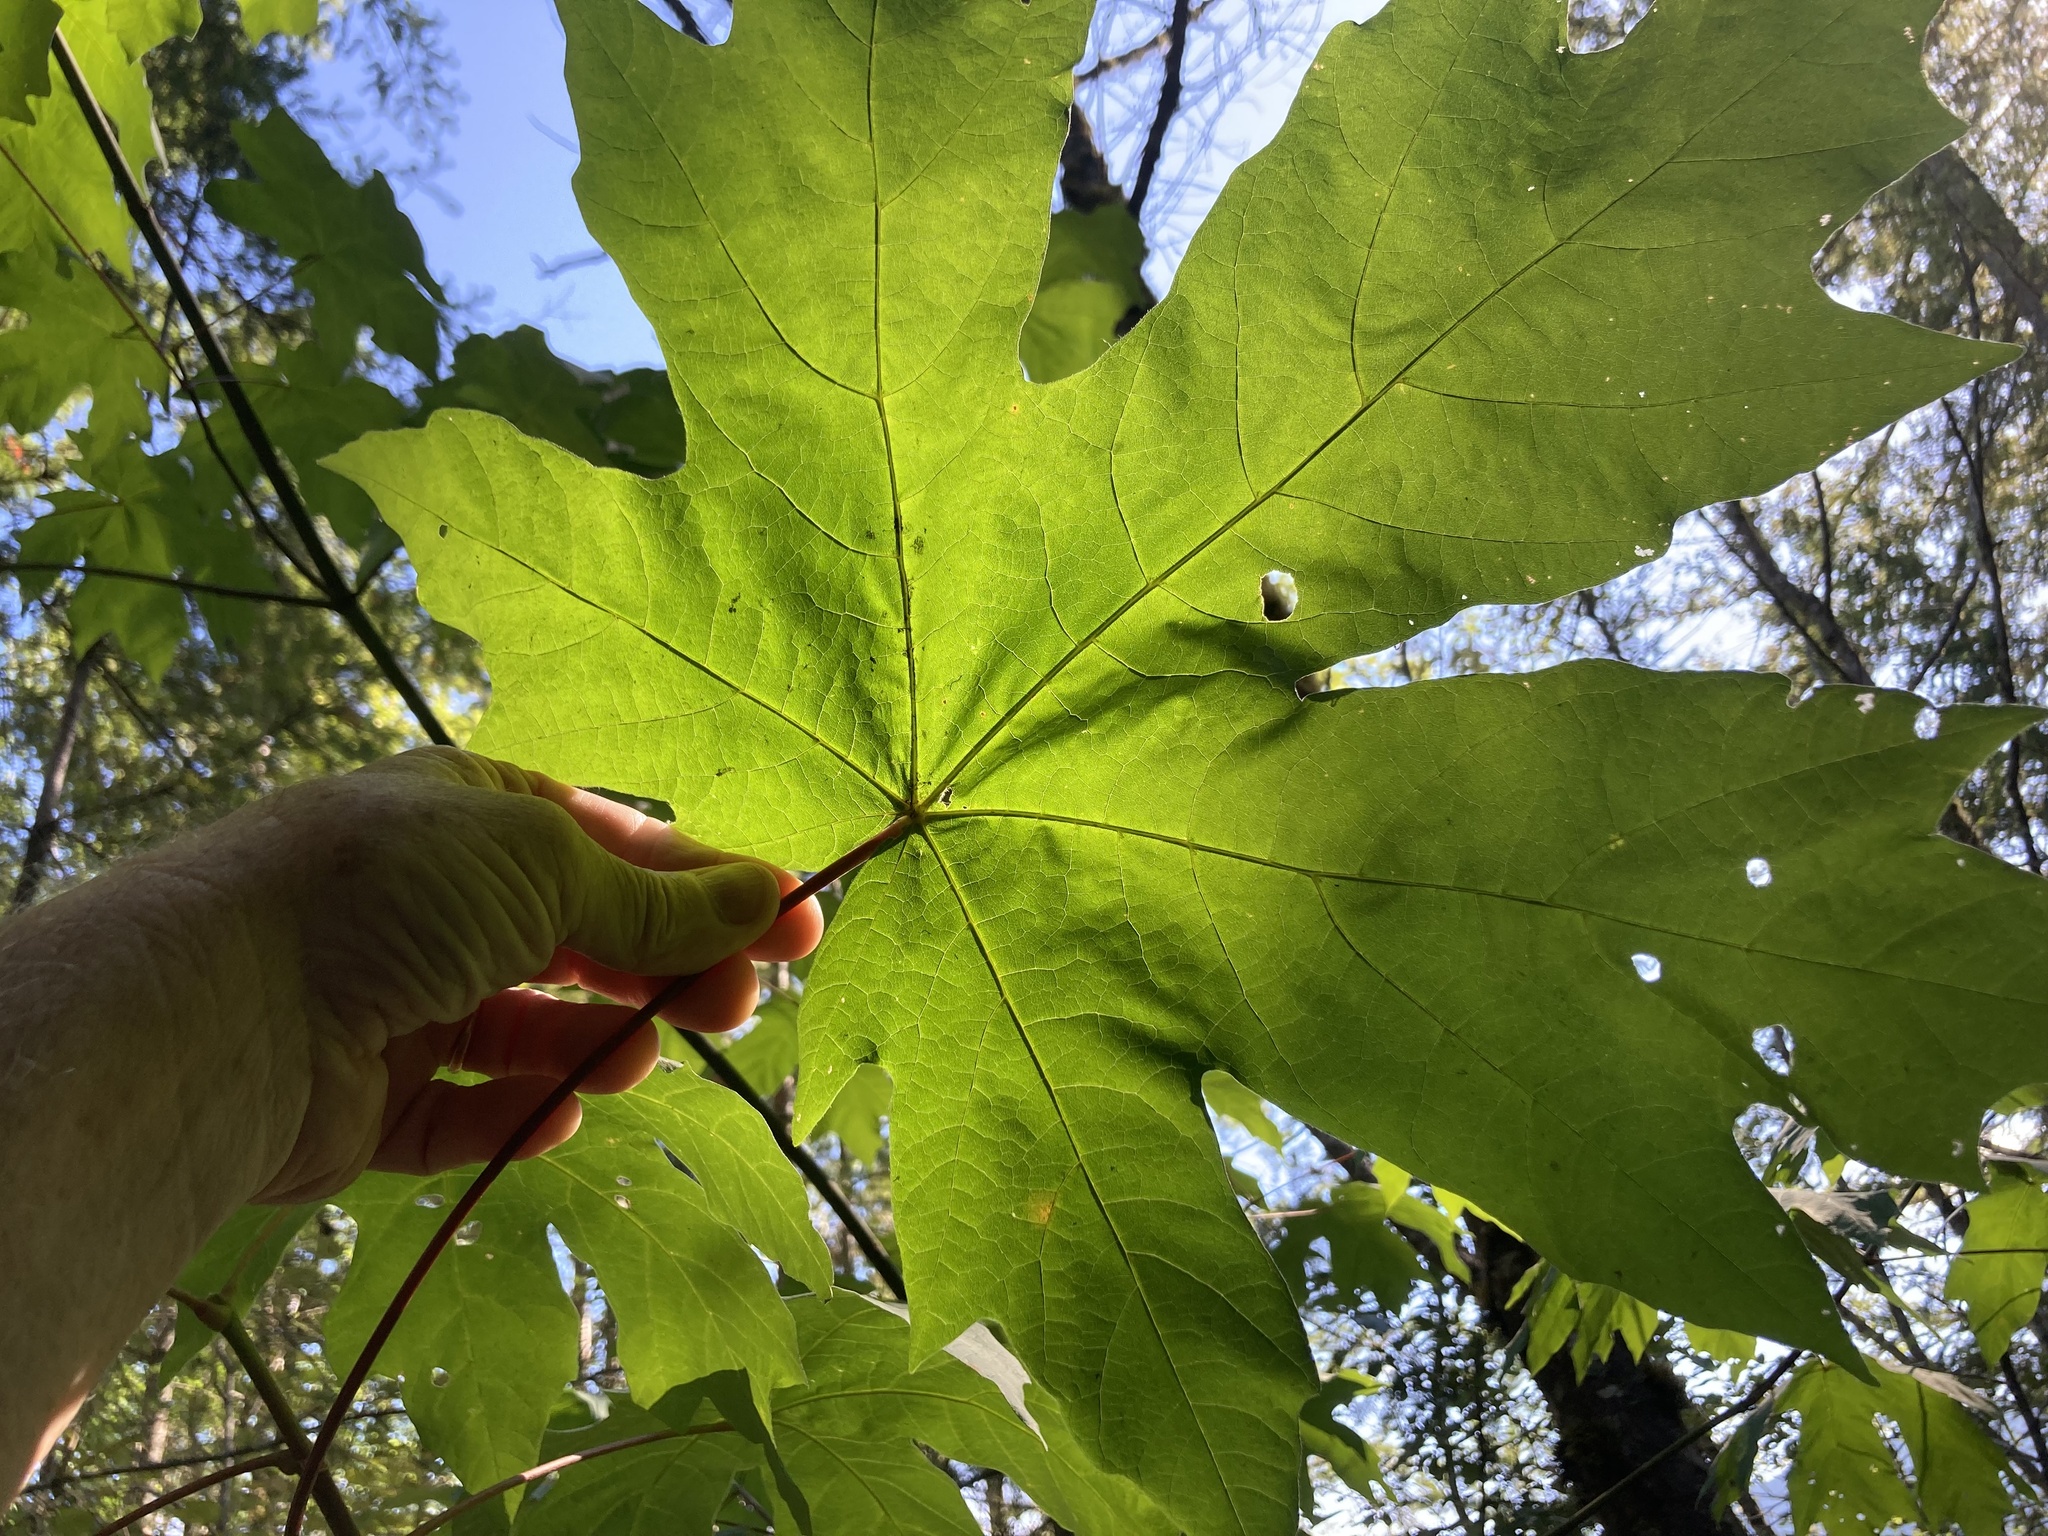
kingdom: Plantae
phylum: Tracheophyta
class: Magnoliopsida
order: Sapindales
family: Sapindaceae
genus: Acer
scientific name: Acer macrophyllum
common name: Oregon maple
